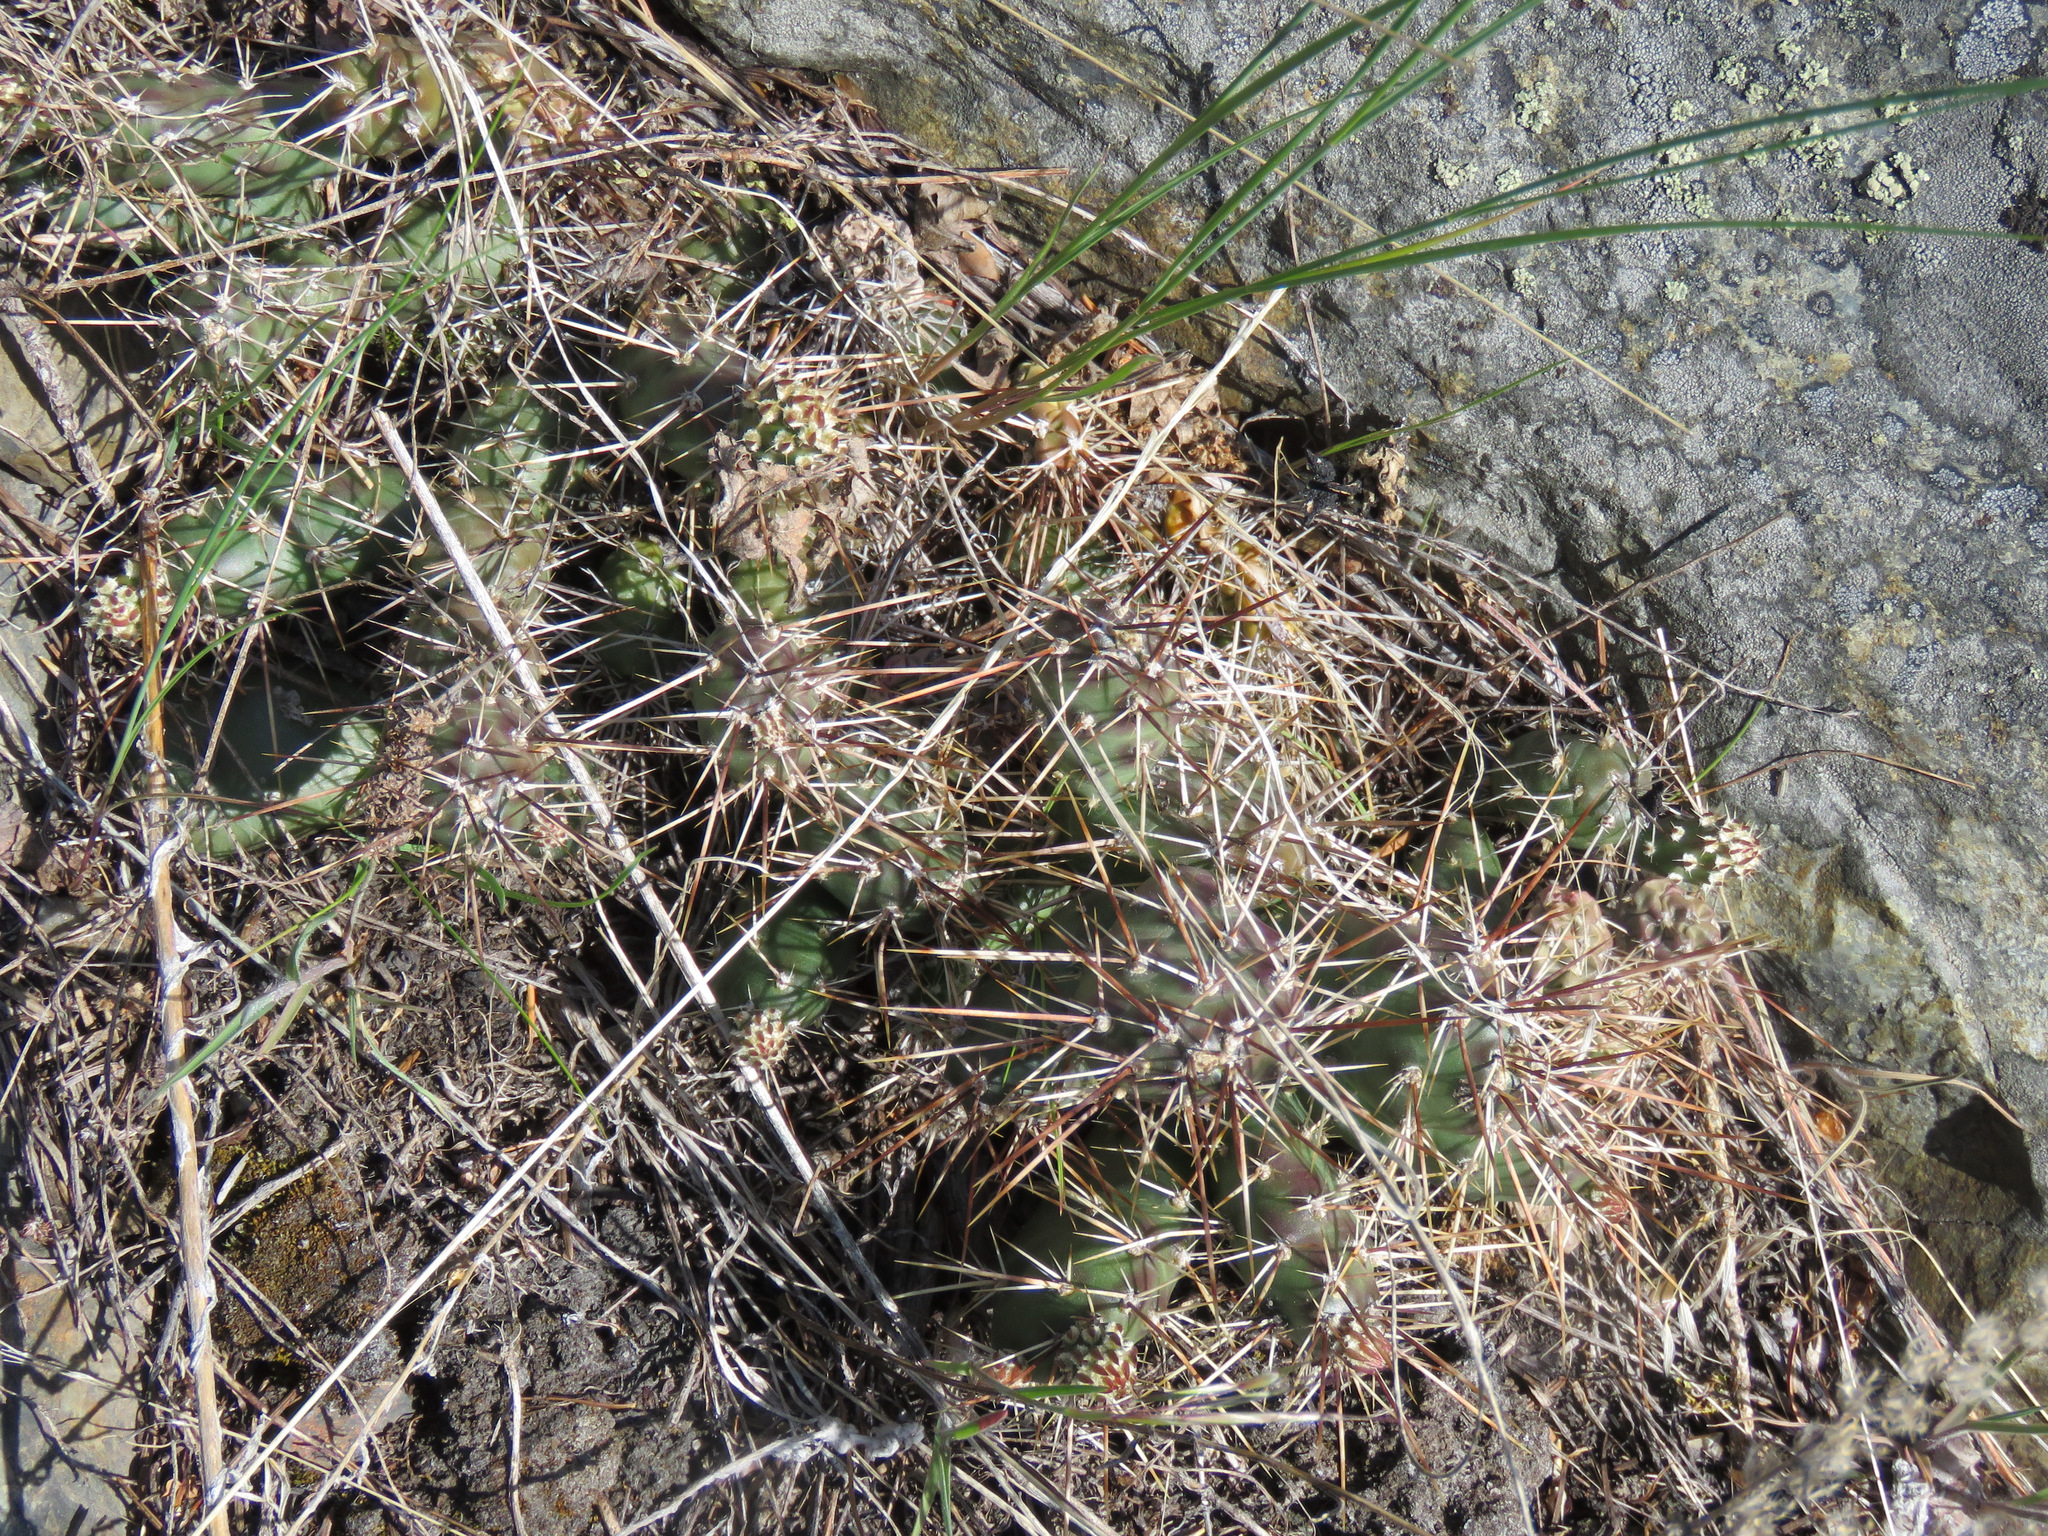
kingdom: Plantae
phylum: Tracheophyta
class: Magnoliopsida
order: Caryophyllales
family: Cactaceae
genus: Opuntia
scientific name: Opuntia fragilis
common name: Brittle cactus
